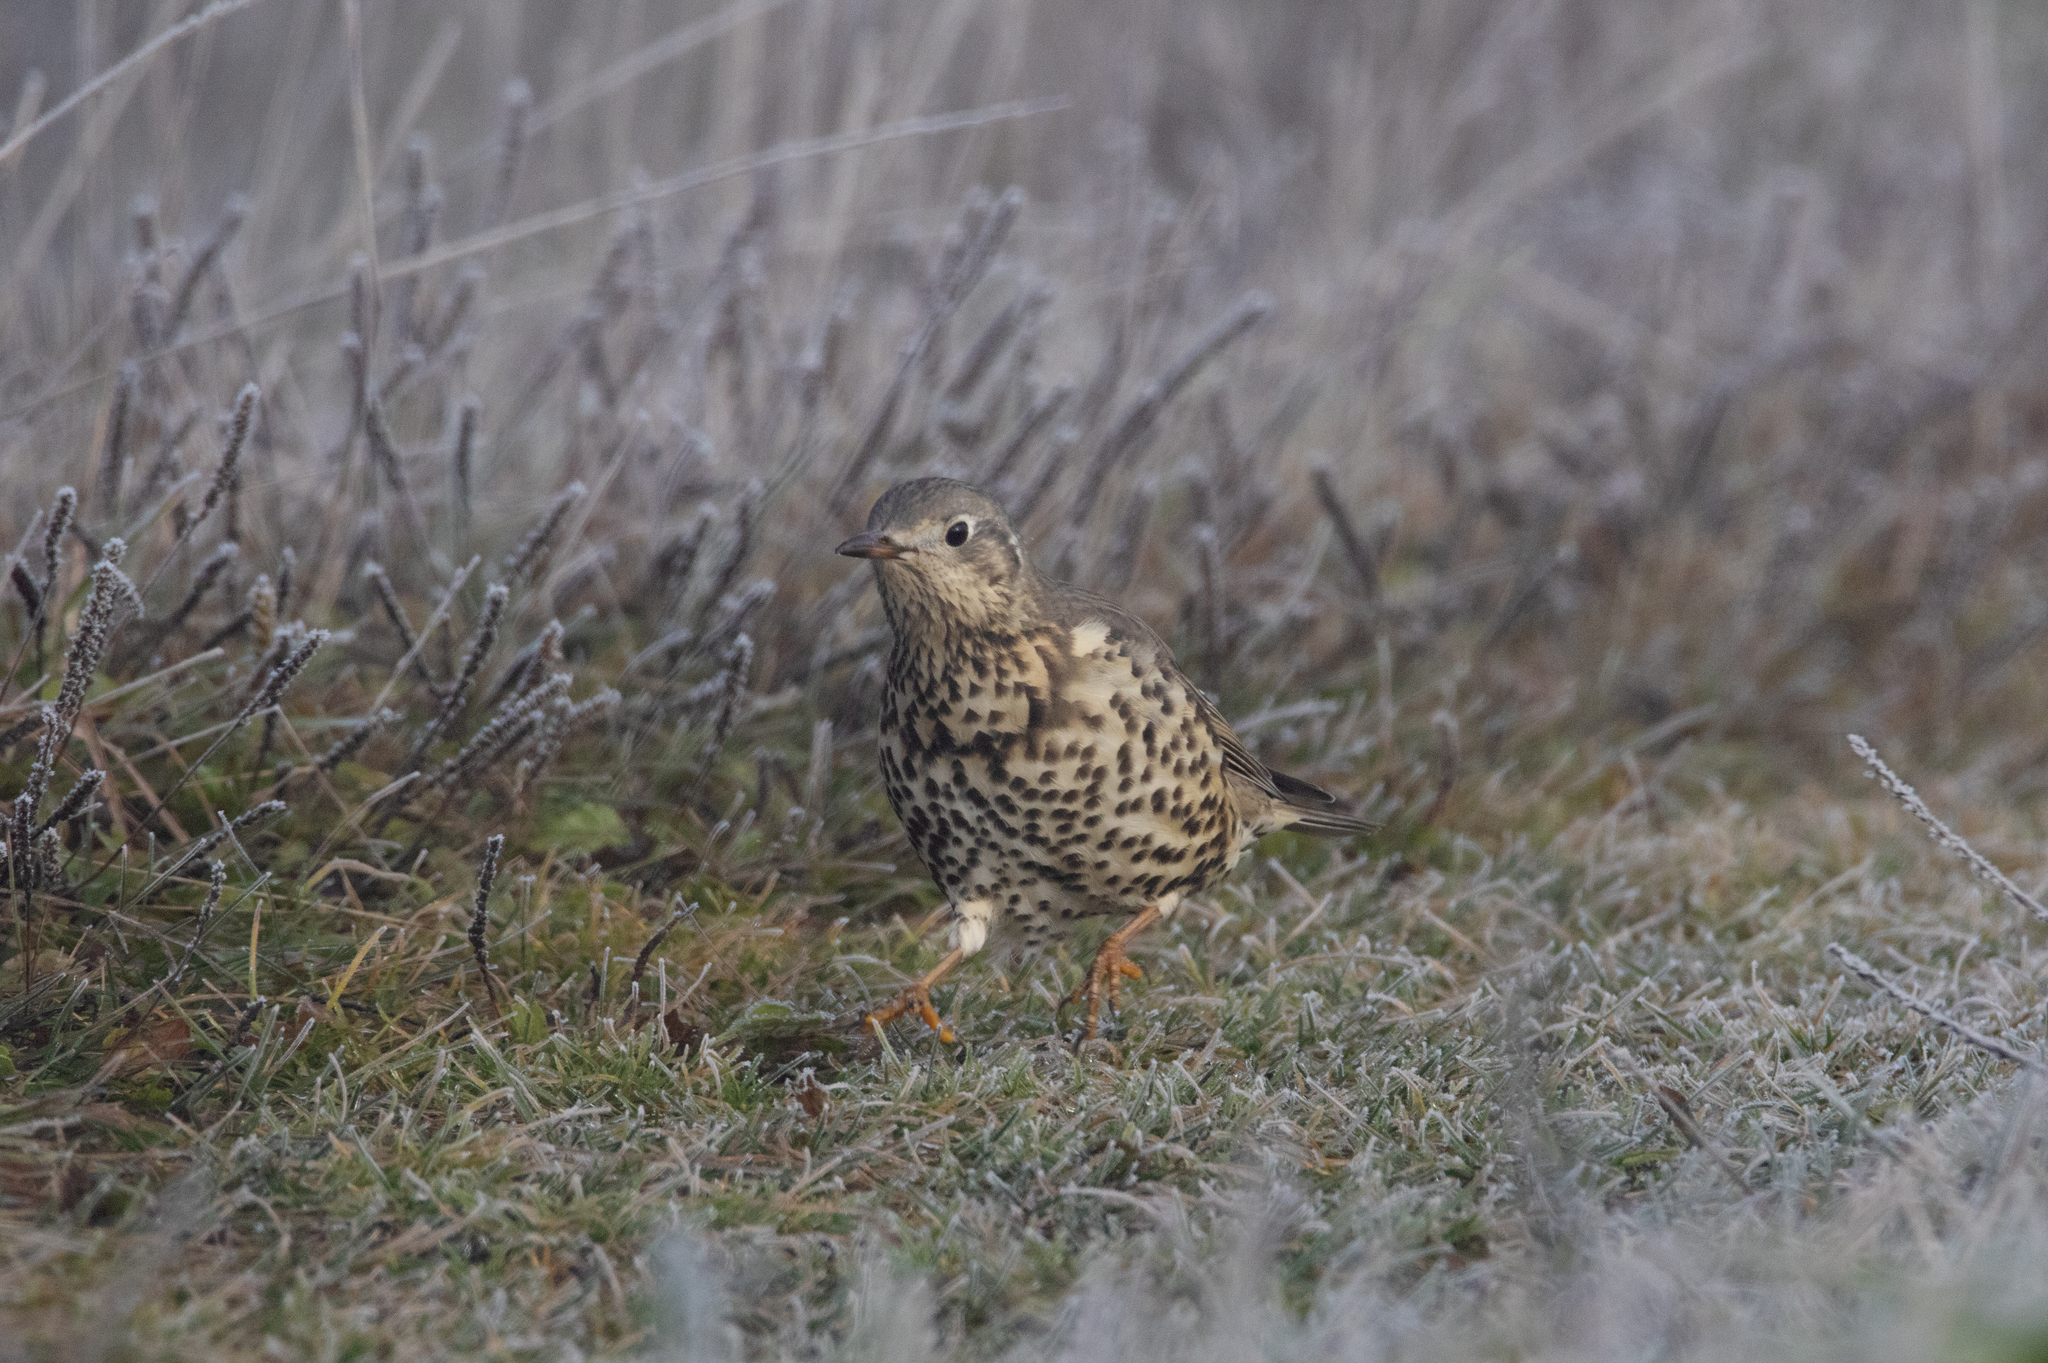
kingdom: Animalia
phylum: Chordata
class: Aves
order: Passeriformes
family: Turdidae
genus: Turdus
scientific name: Turdus viscivorus
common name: Mistle thrush
